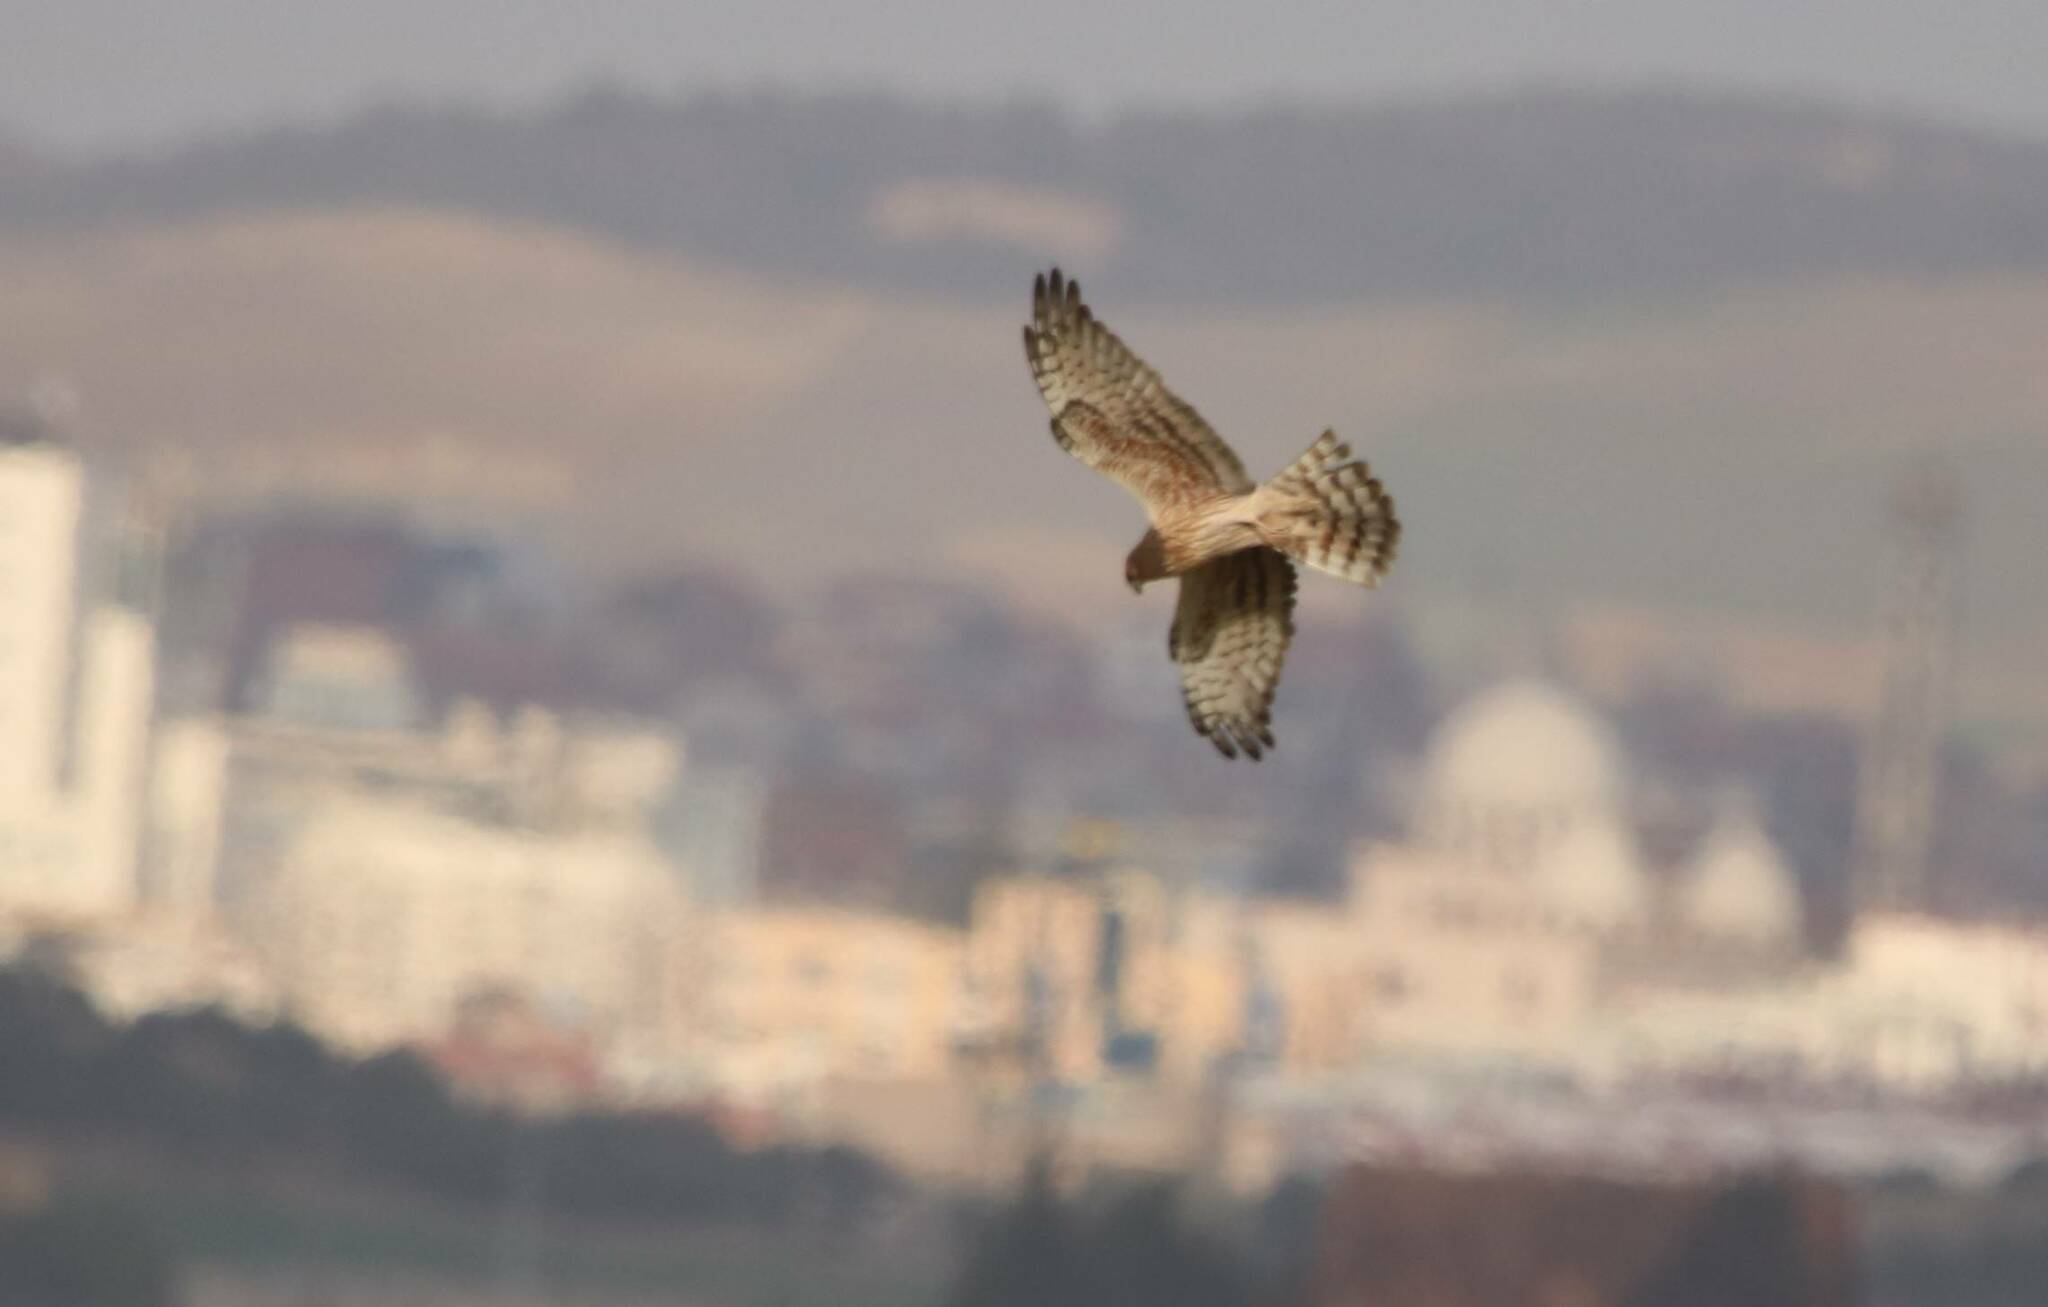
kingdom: Animalia
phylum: Chordata
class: Aves
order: Accipitriformes
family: Accipitridae
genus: Circus
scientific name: Circus pygargus
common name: Montagu's harrier
